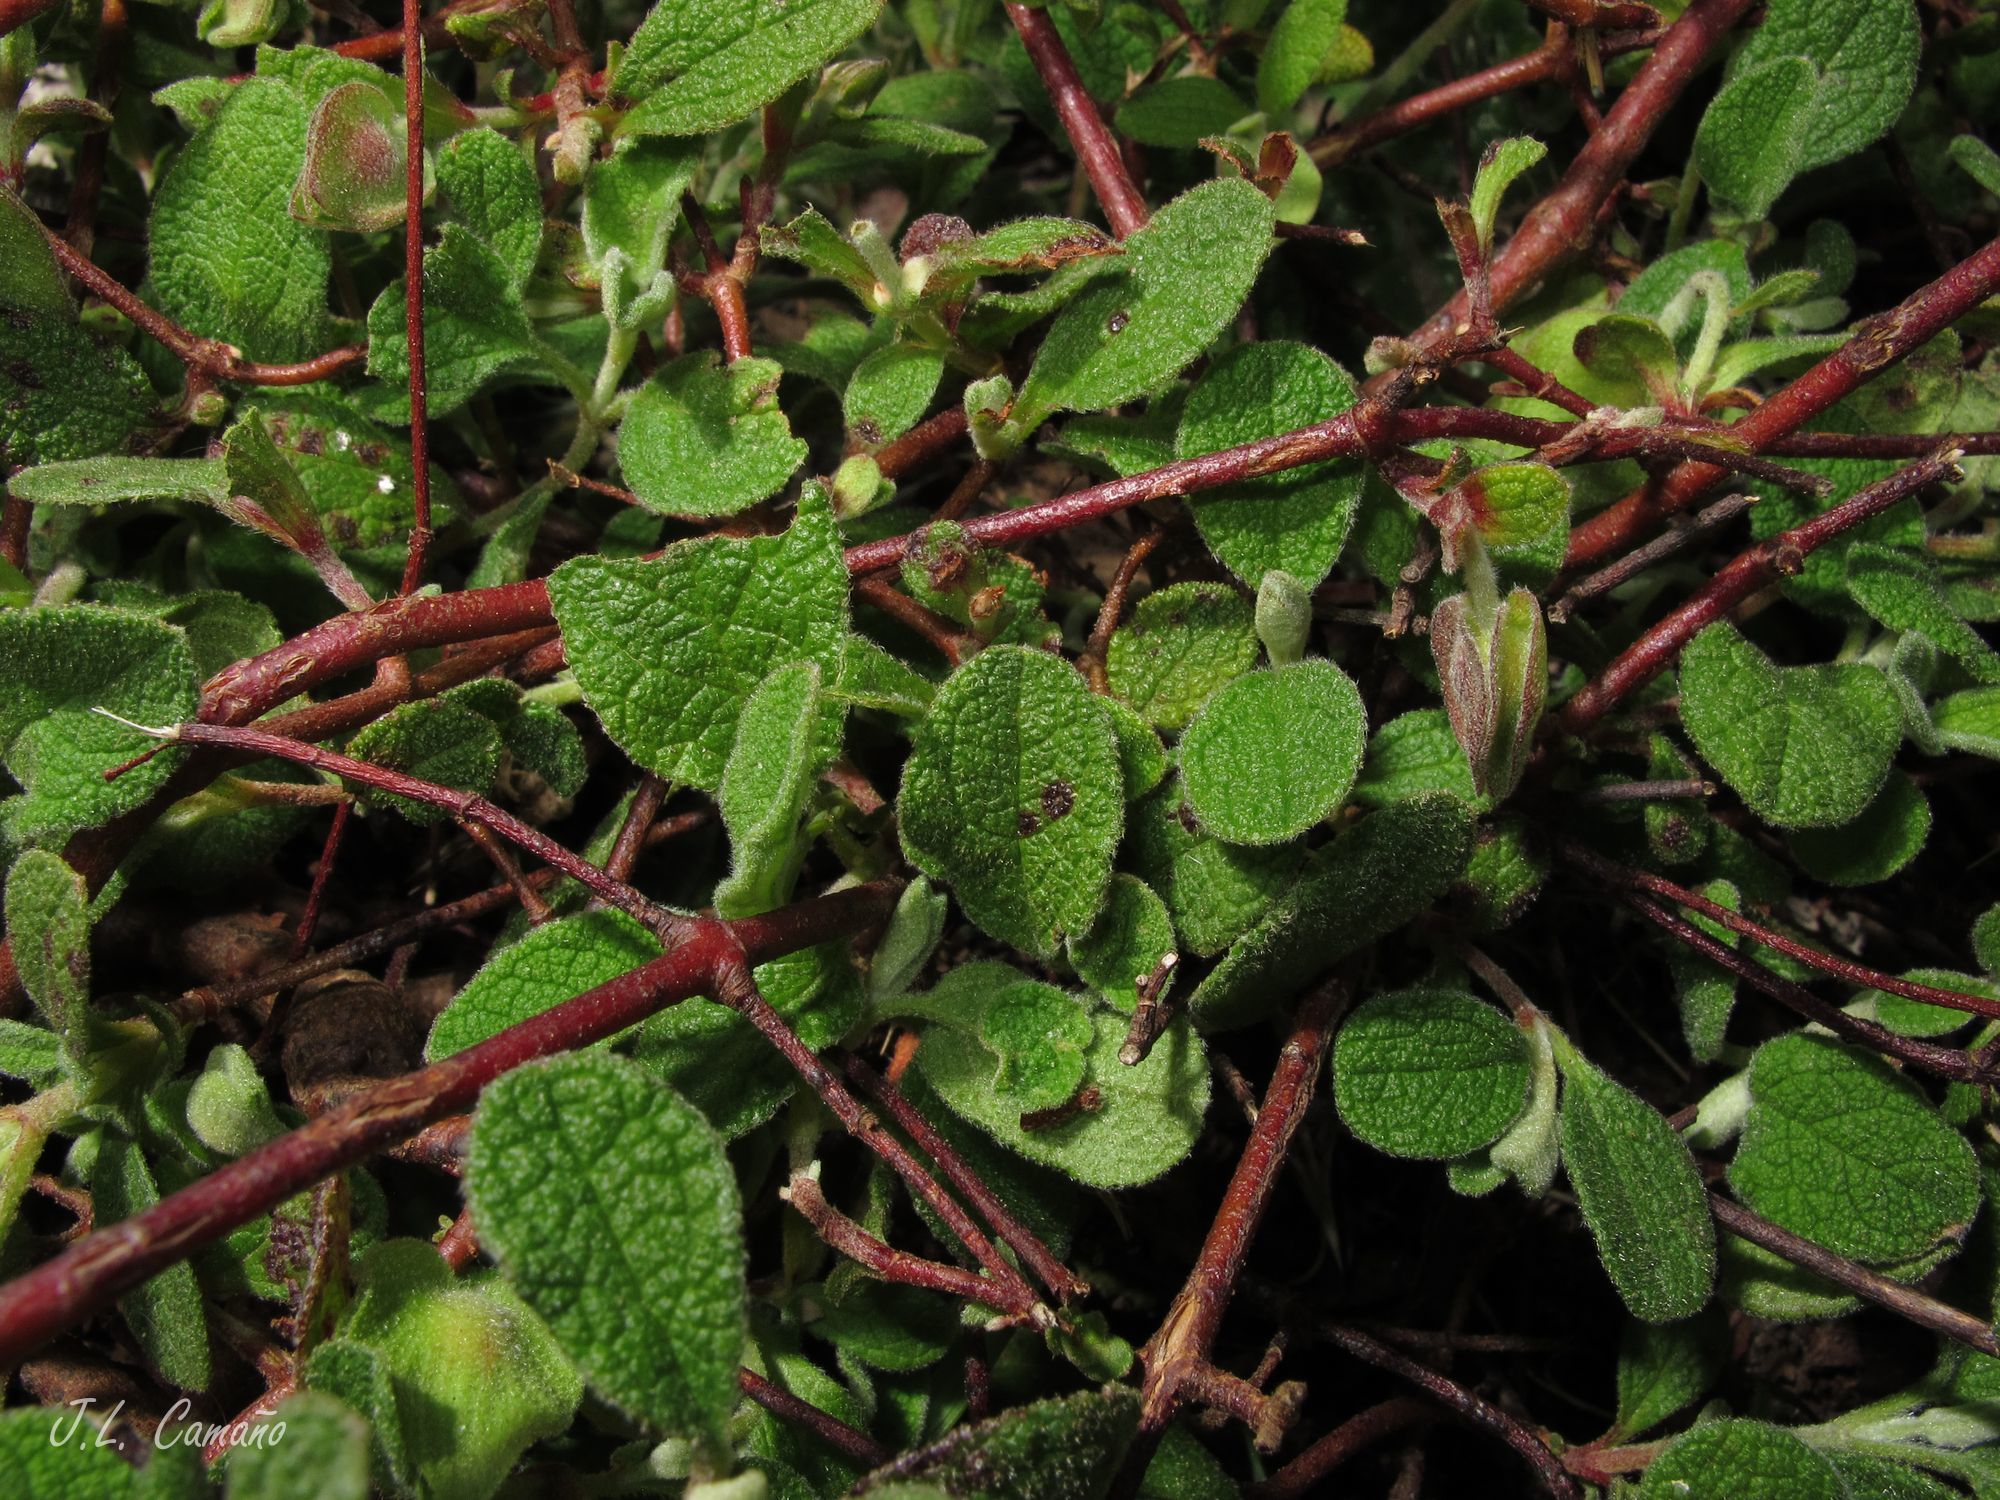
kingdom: Plantae
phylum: Tracheophyta
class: Magnoliopsida
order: Malvales
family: Cistaceae
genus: Cistus
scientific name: Cistus salviifolius
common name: Salvia cistus
